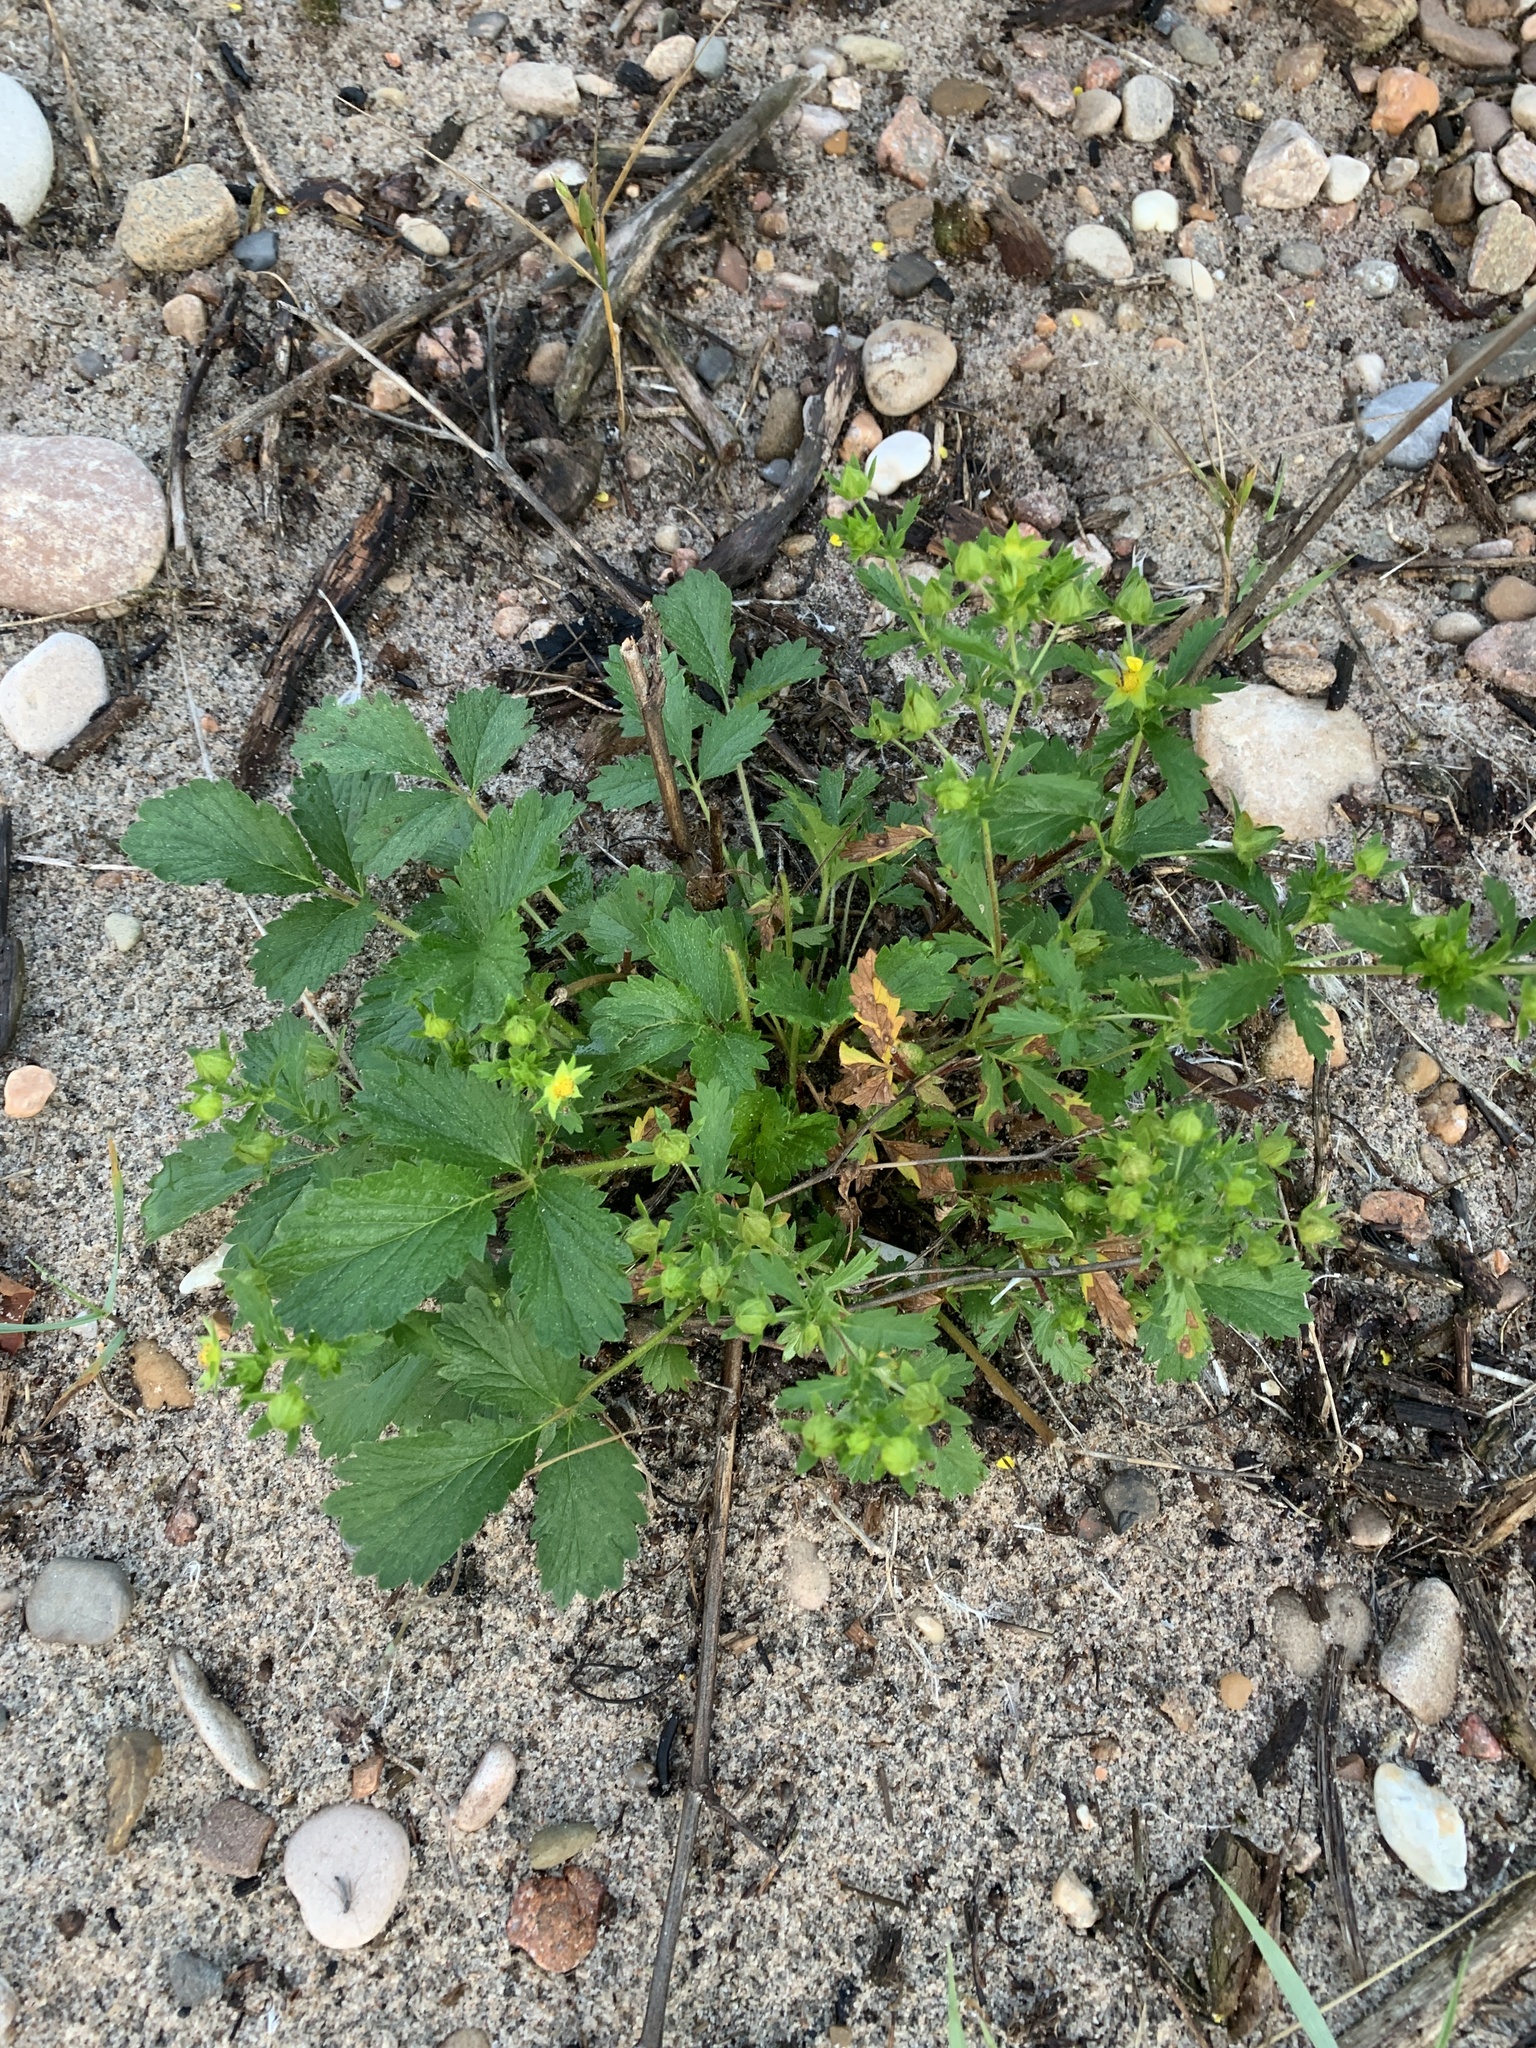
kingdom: Plantae
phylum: Tracheophyta
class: Magnoliopsida
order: Rosales
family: Rosaceae
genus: Potentilla
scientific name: Potentilla norvegica
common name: Ternate-leaved cinquefoil
